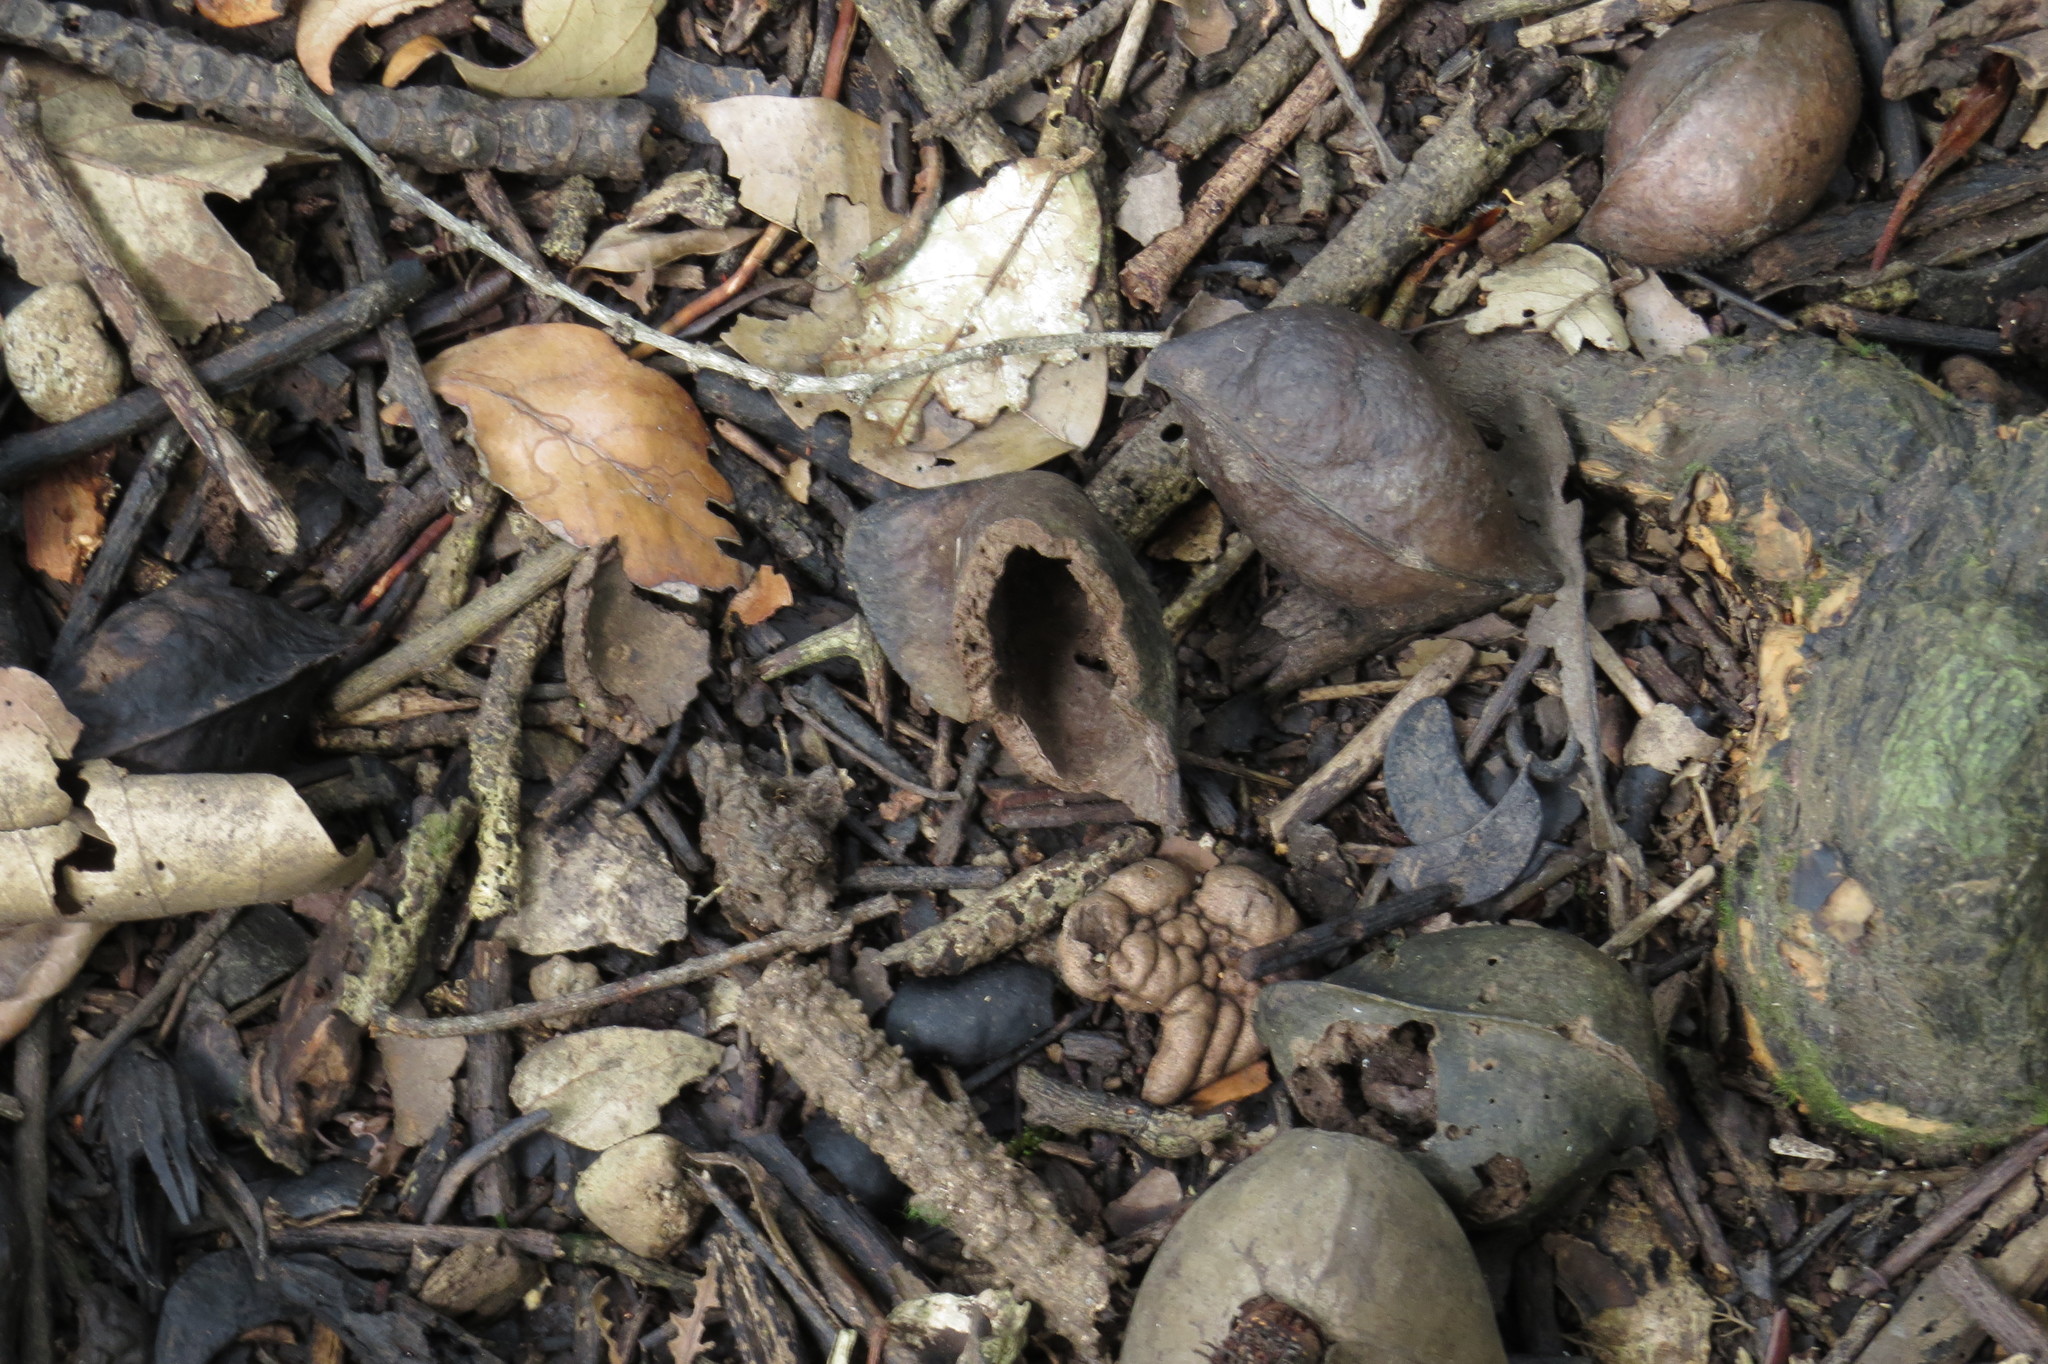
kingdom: Plantae
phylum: Tracheophyta
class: Magnoliopsida
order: Malvales
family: Malvaceae
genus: Heritiera
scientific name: Heritiera littoralis
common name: Looking-glass mangrove
